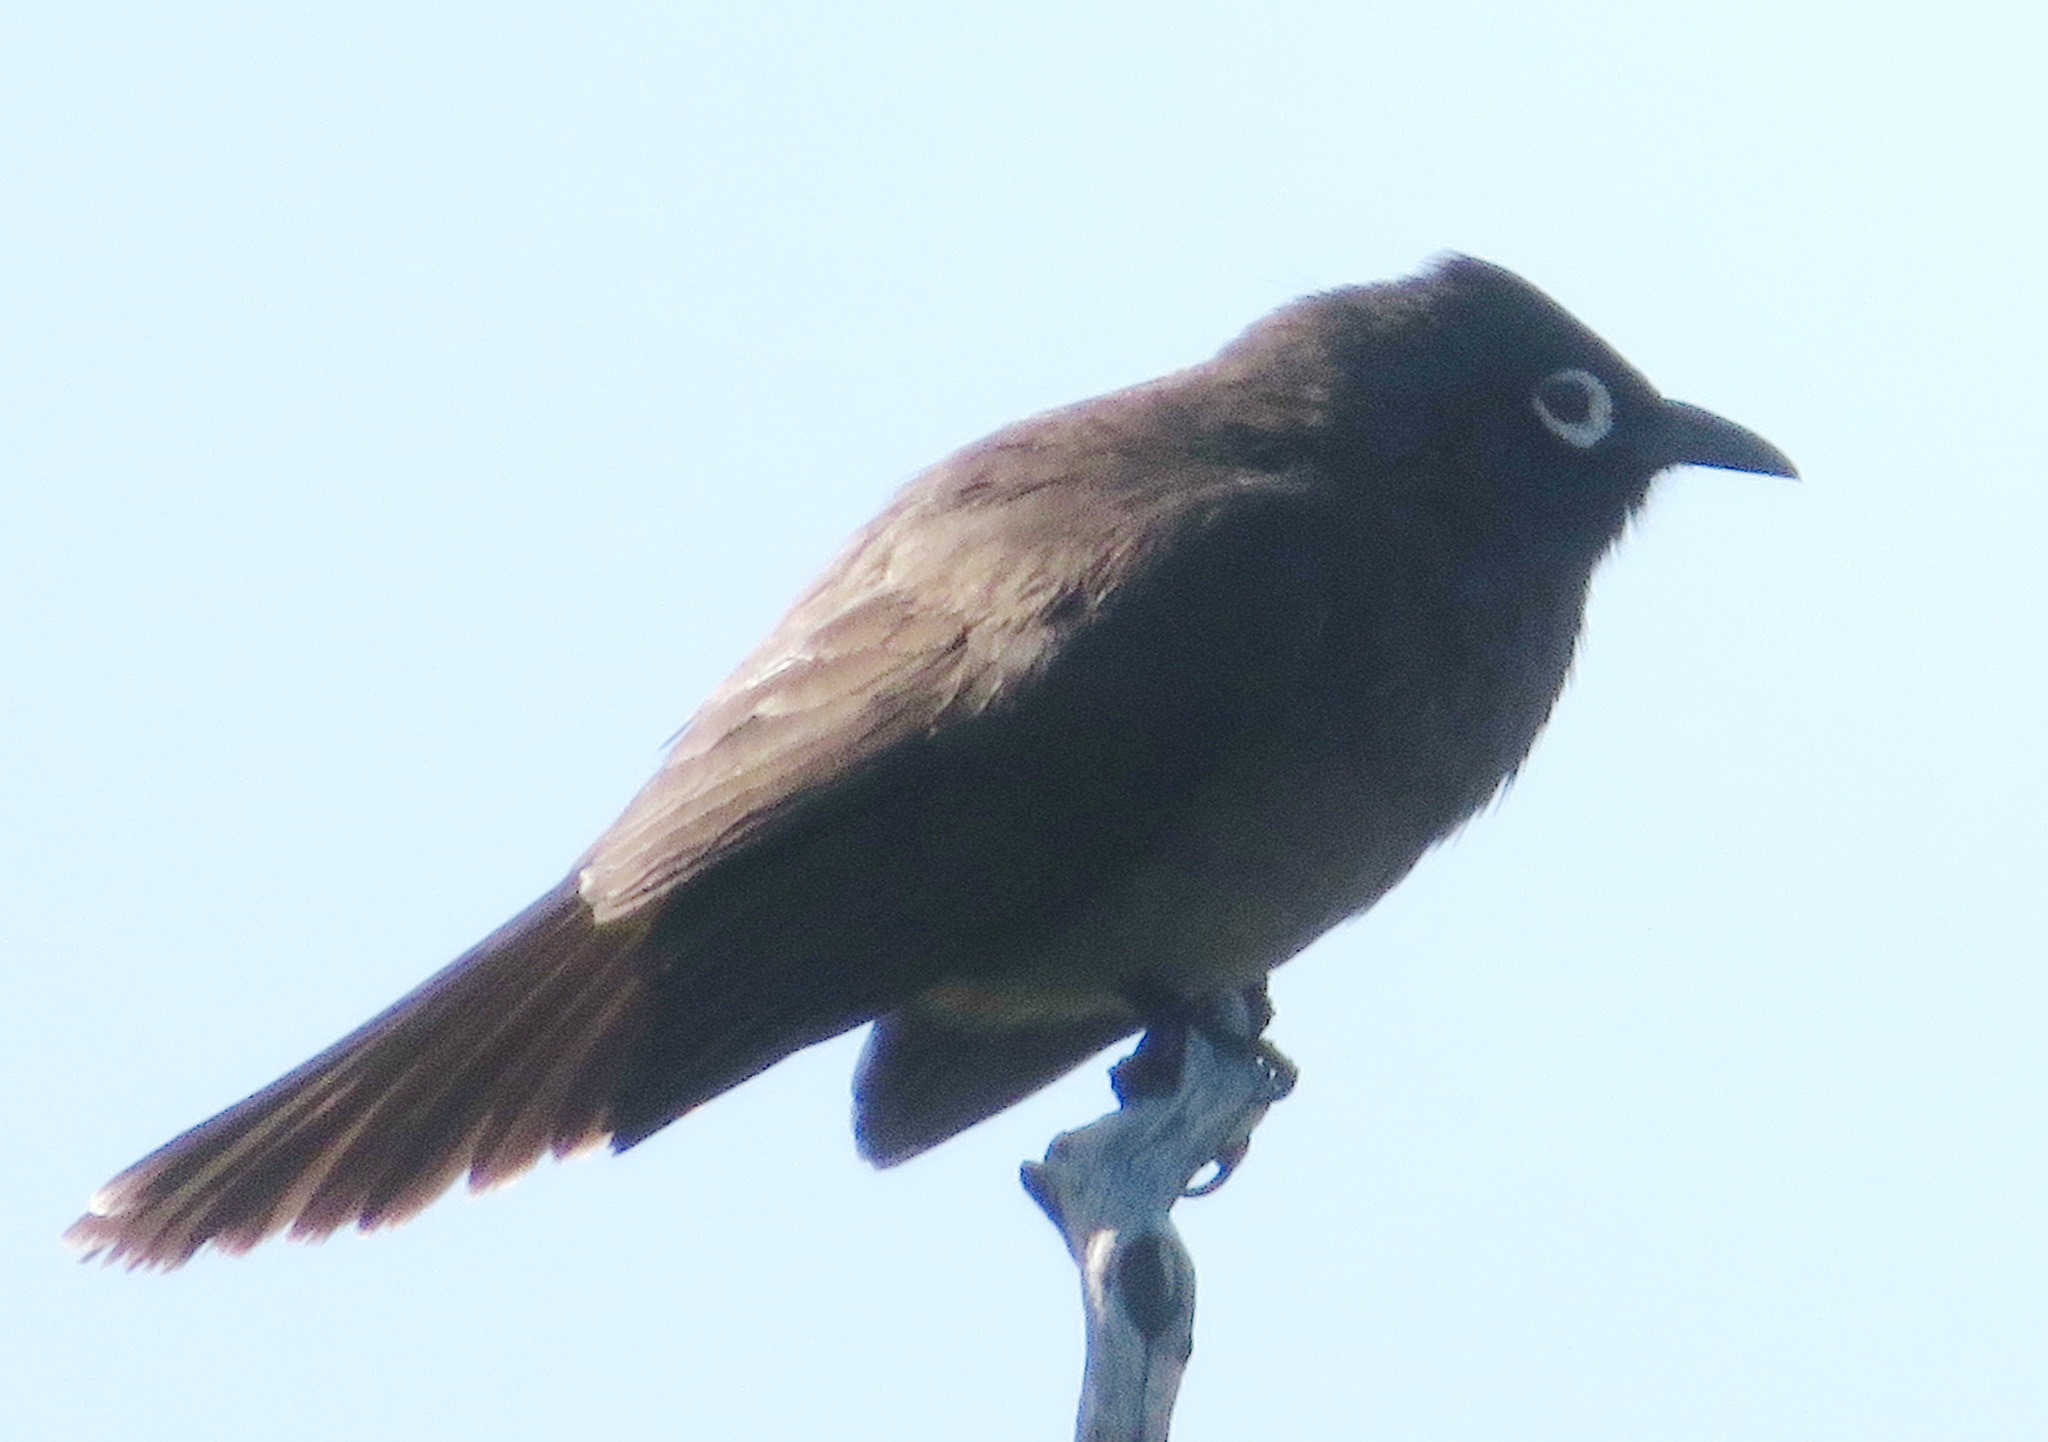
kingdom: Animalia
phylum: Chordata
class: Aves
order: Passeriformes
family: Pycnonotidae
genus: Pycnonotus
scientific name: Pycnonotus capensis
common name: Cape bulbul
